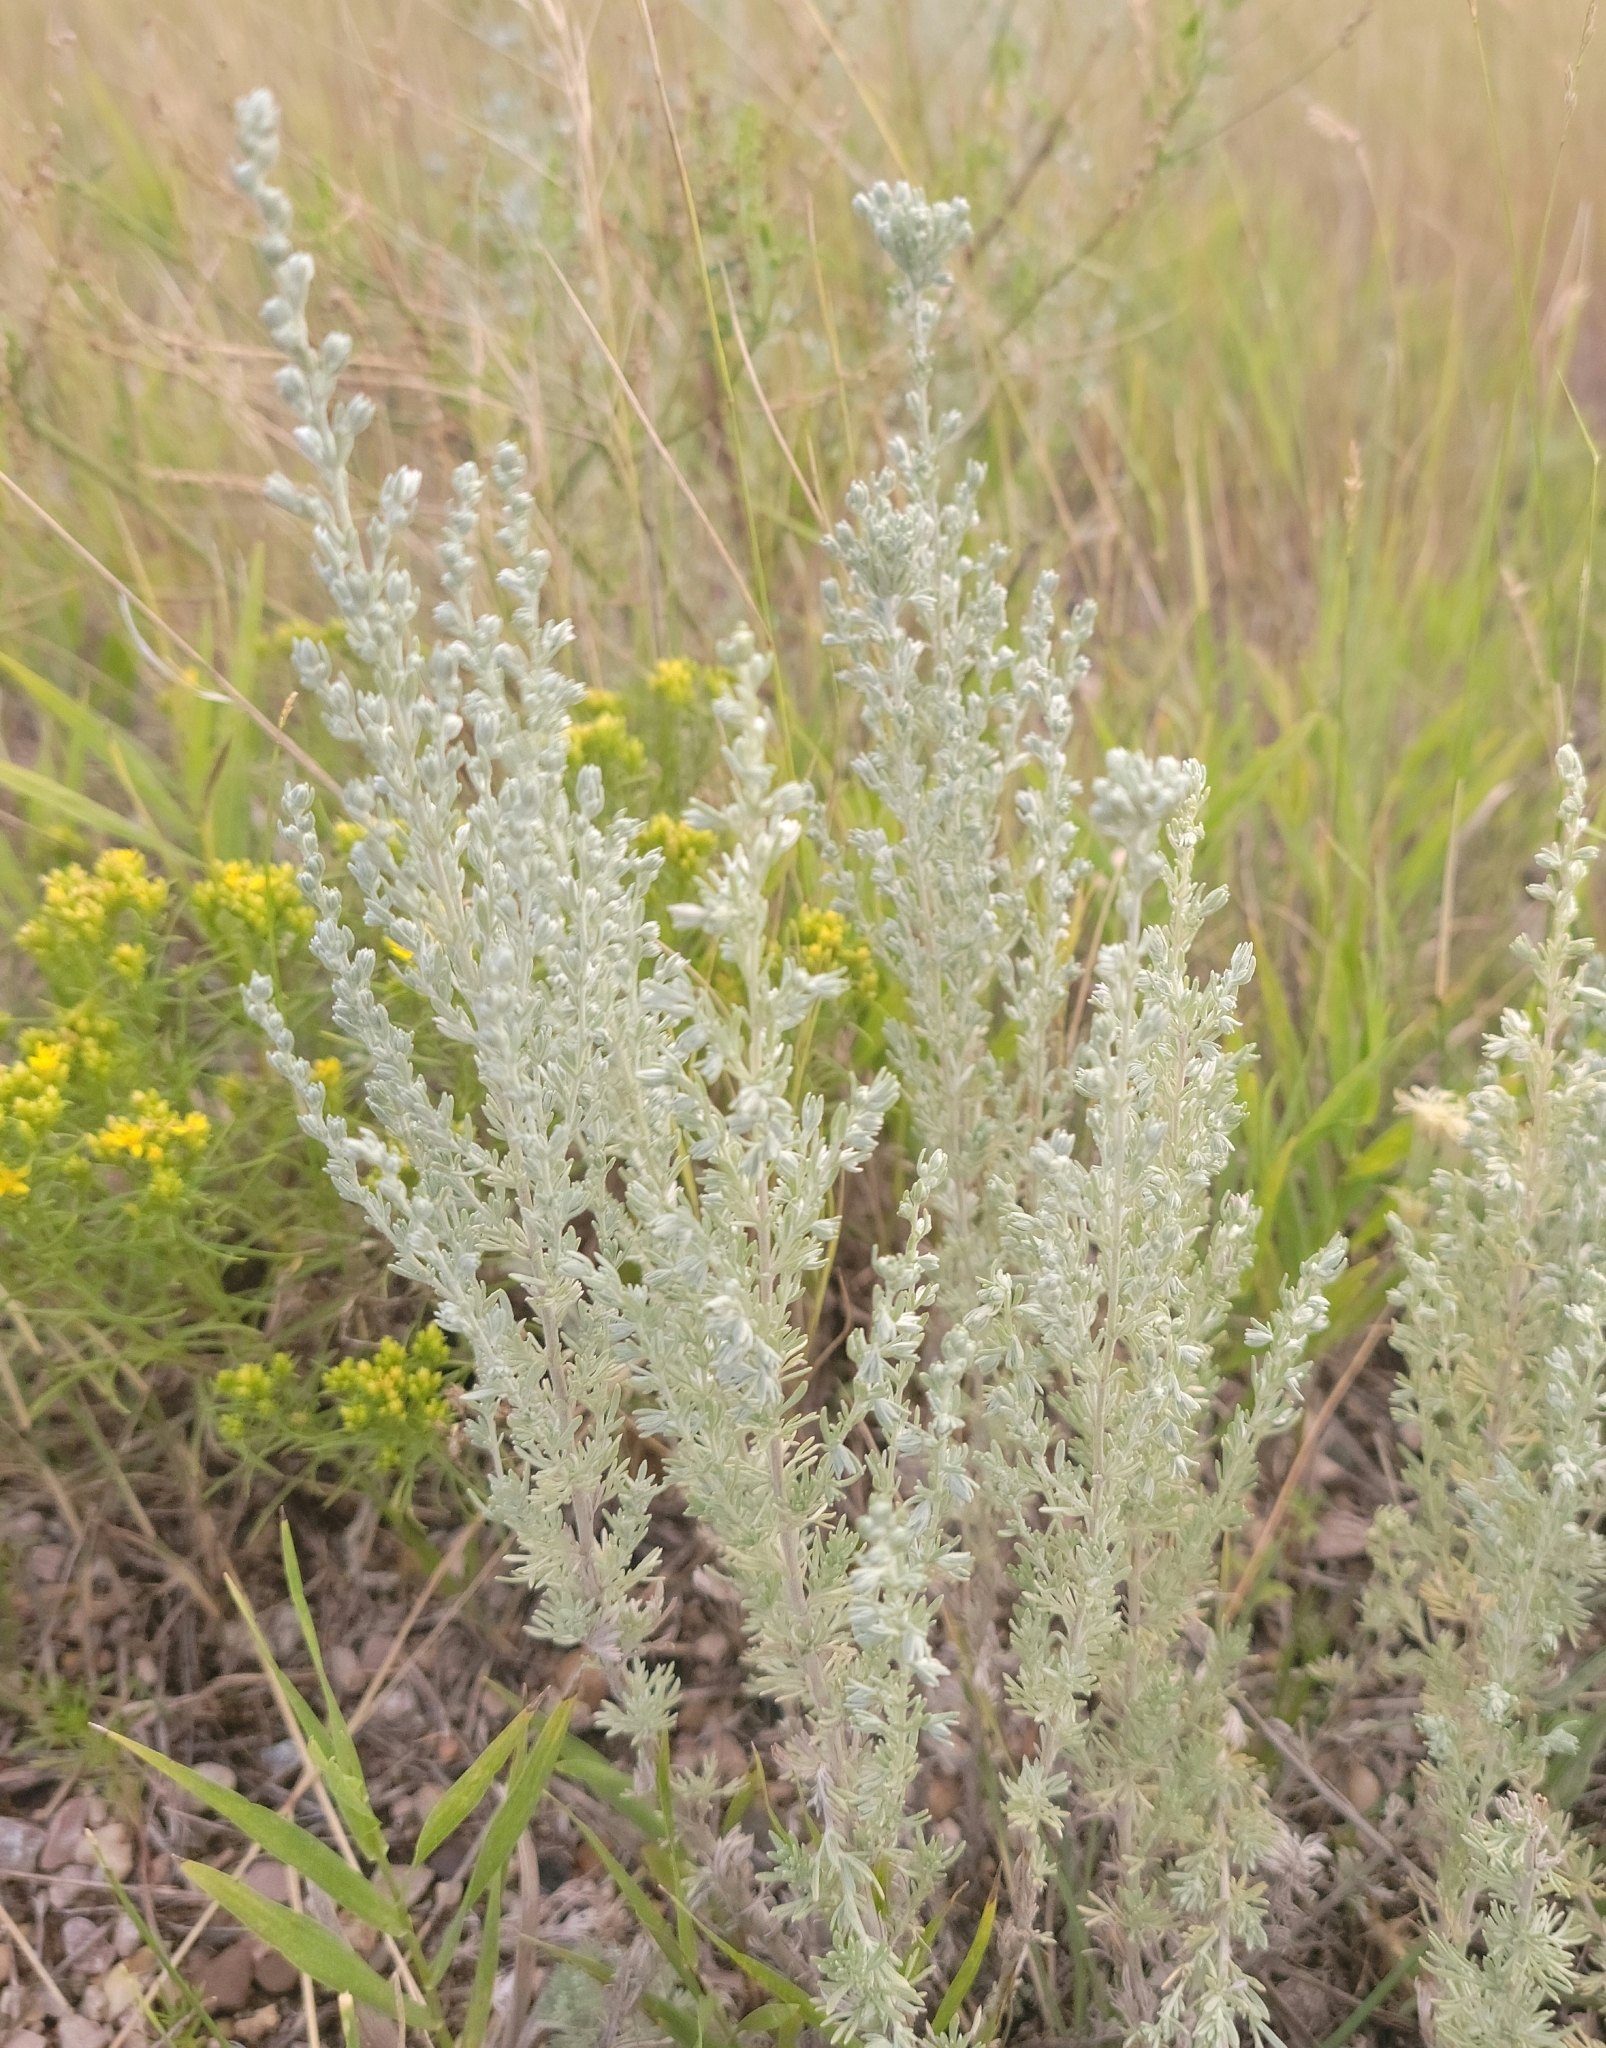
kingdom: Plantae
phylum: Tracheophyta
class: Magnoliopsida
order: Asterales
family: Asteraceae
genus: Artemisia
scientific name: Artemisia frigida
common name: Prairie sagewort
